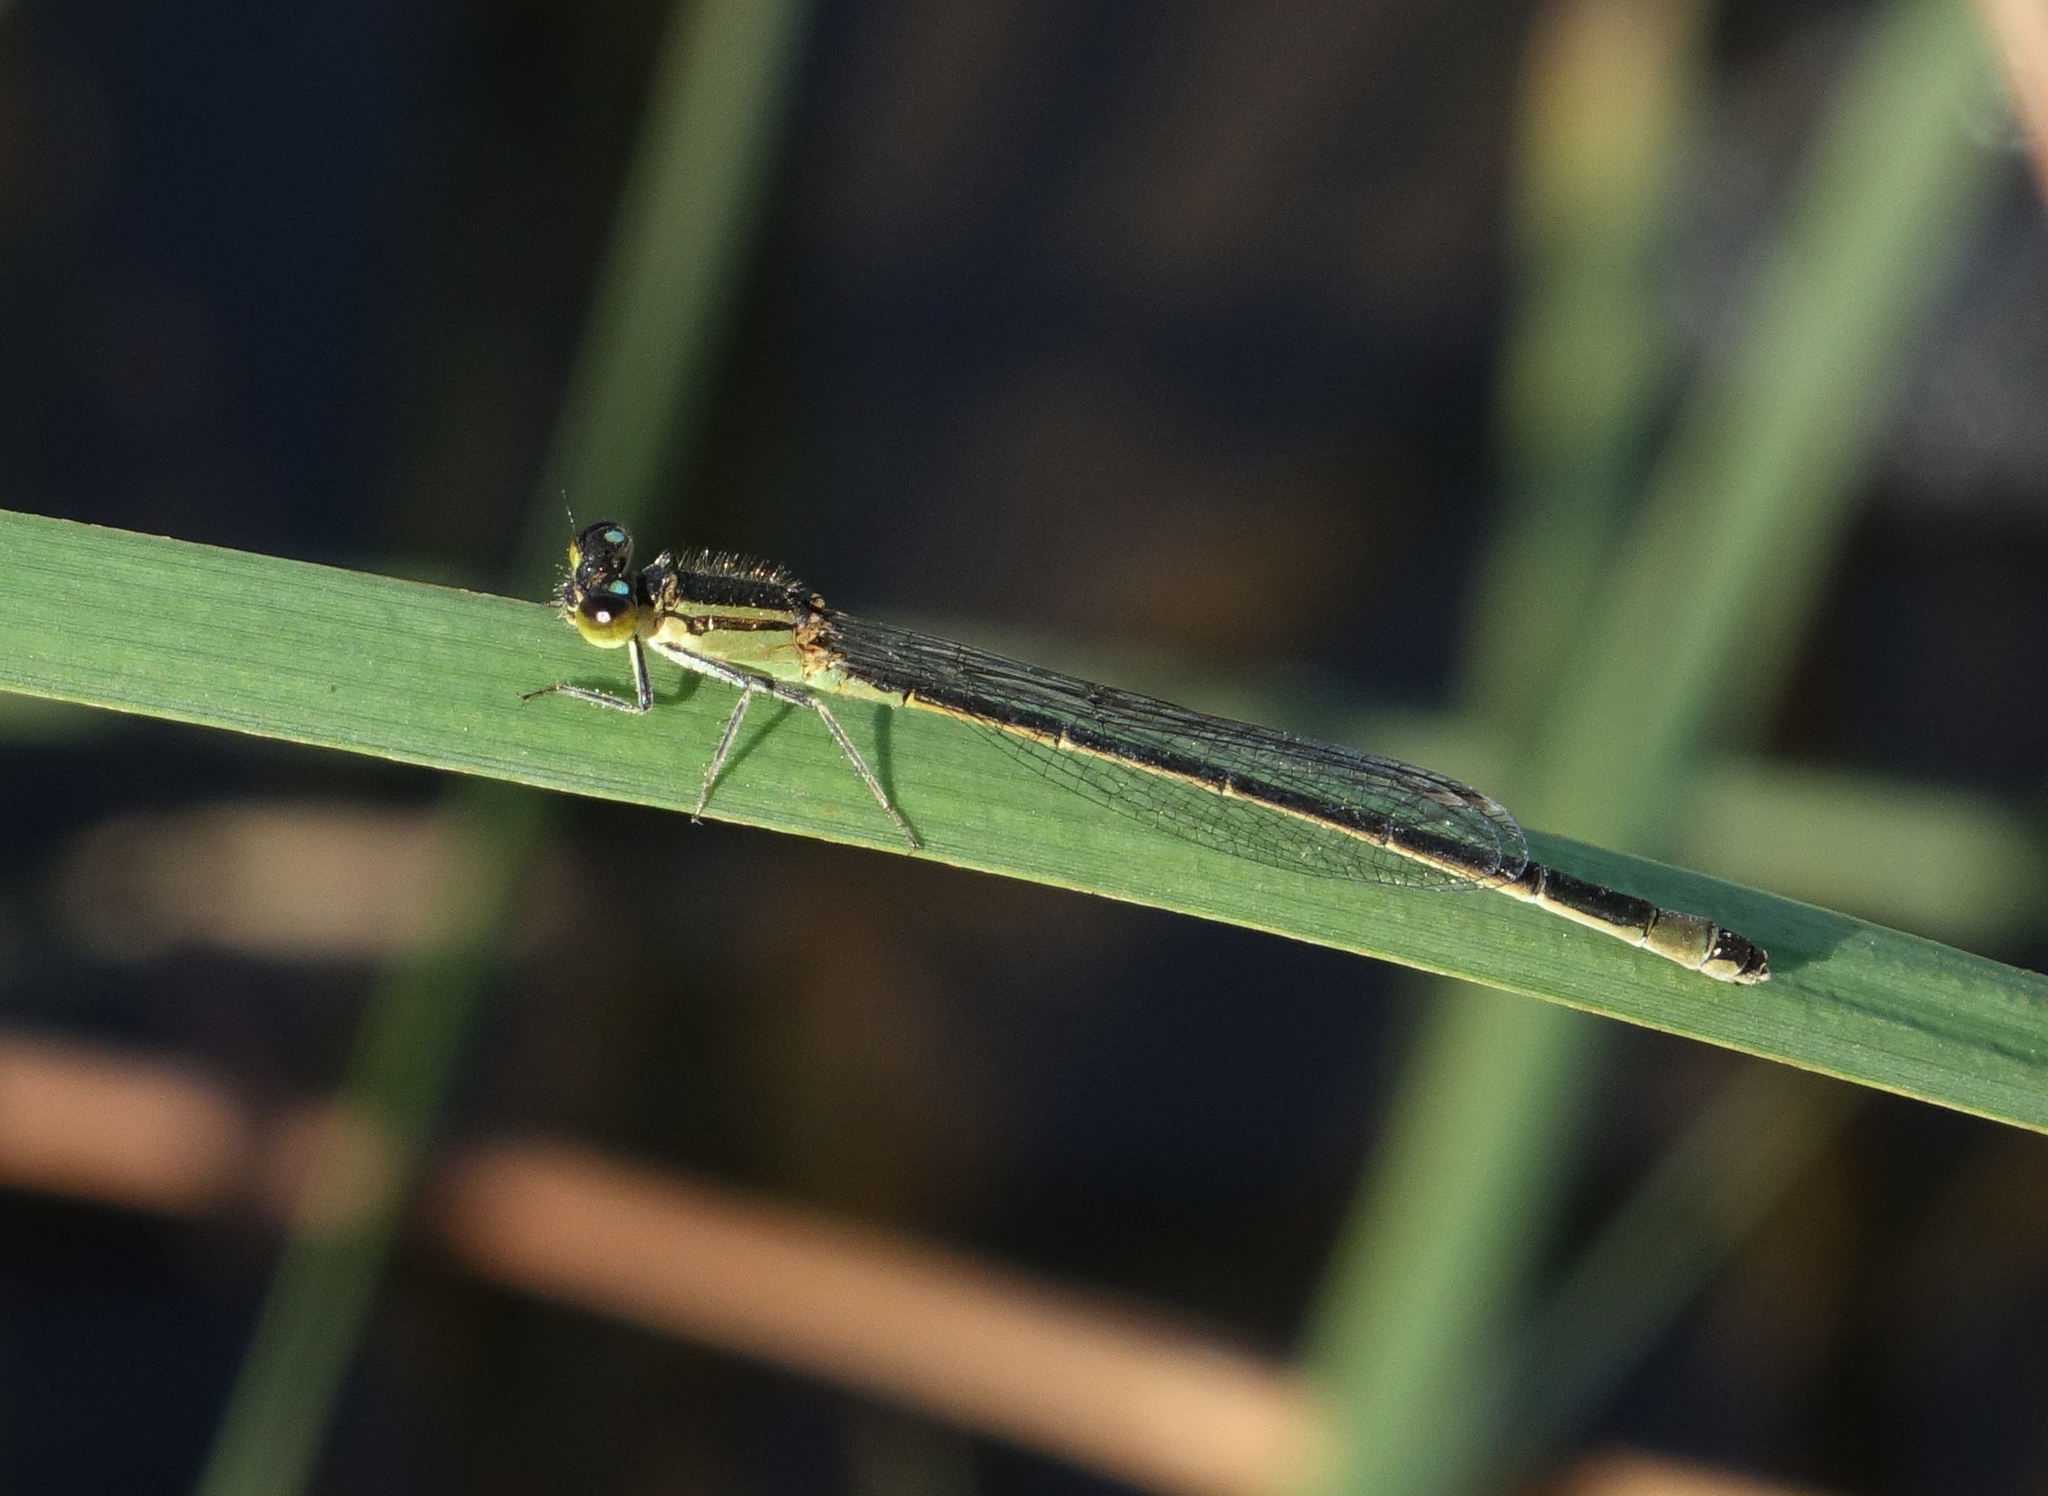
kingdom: Animalia
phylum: Arthropoda
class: Insecta
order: Odonata
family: Coenagrionidae
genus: Ischnura
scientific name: Ischnura elegans
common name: Blue-tailed damselfly
